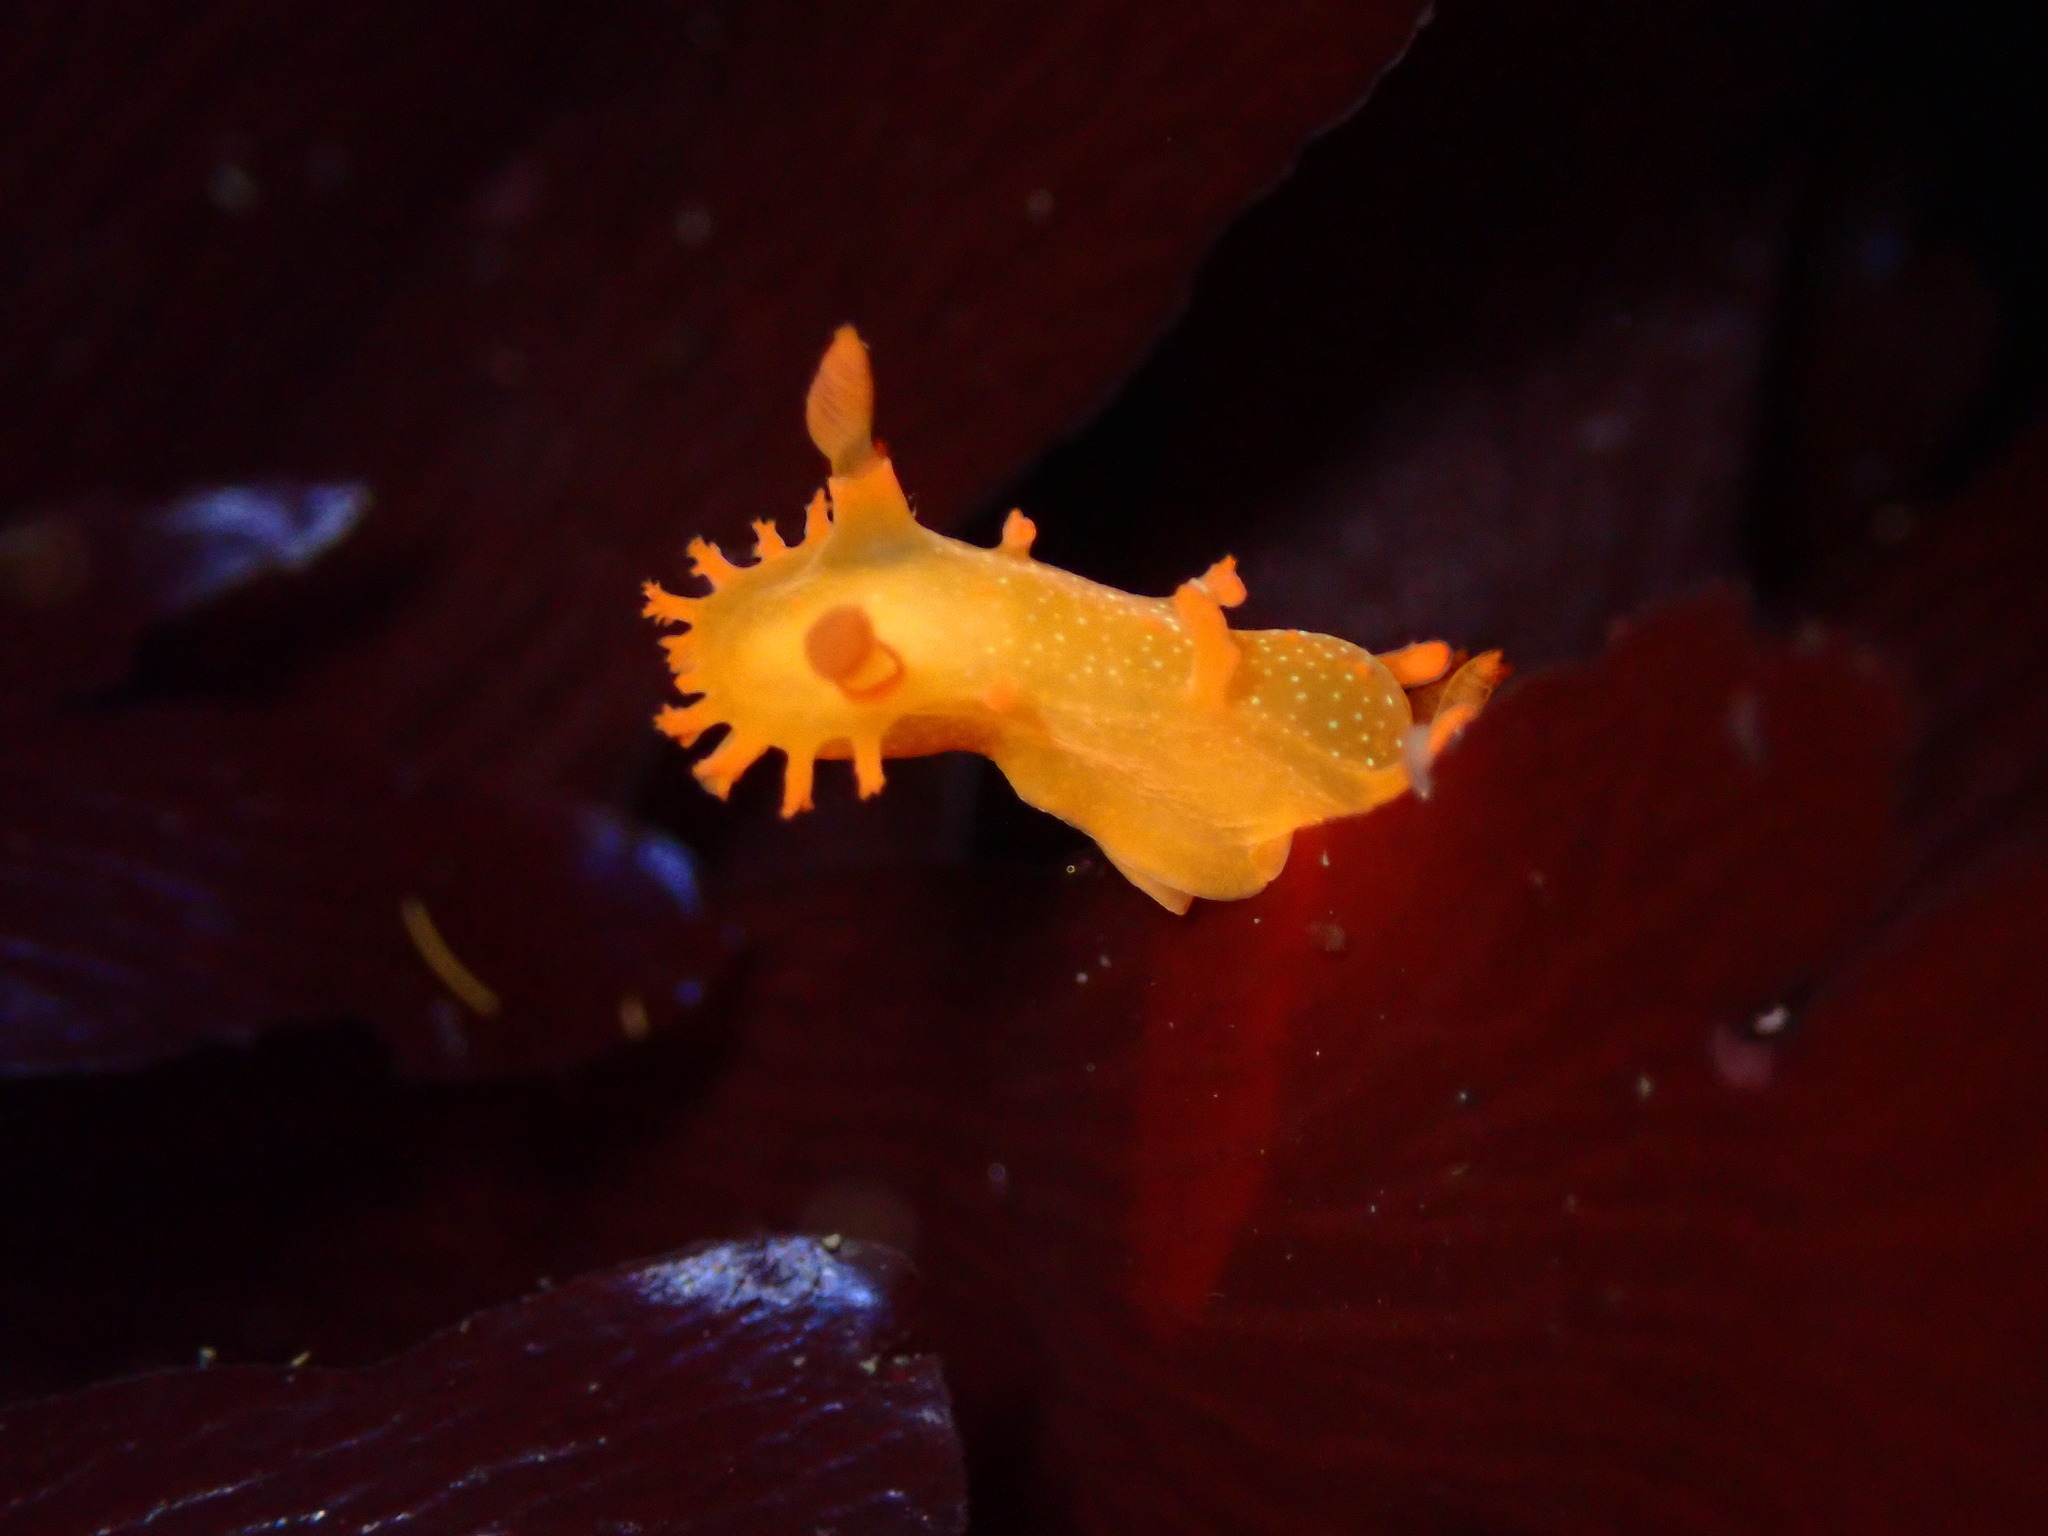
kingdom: Animalia
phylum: Mollusca
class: Gastropoda
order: Nudibranchia
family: Polyceridae
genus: Triopha
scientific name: Triopha maculata
